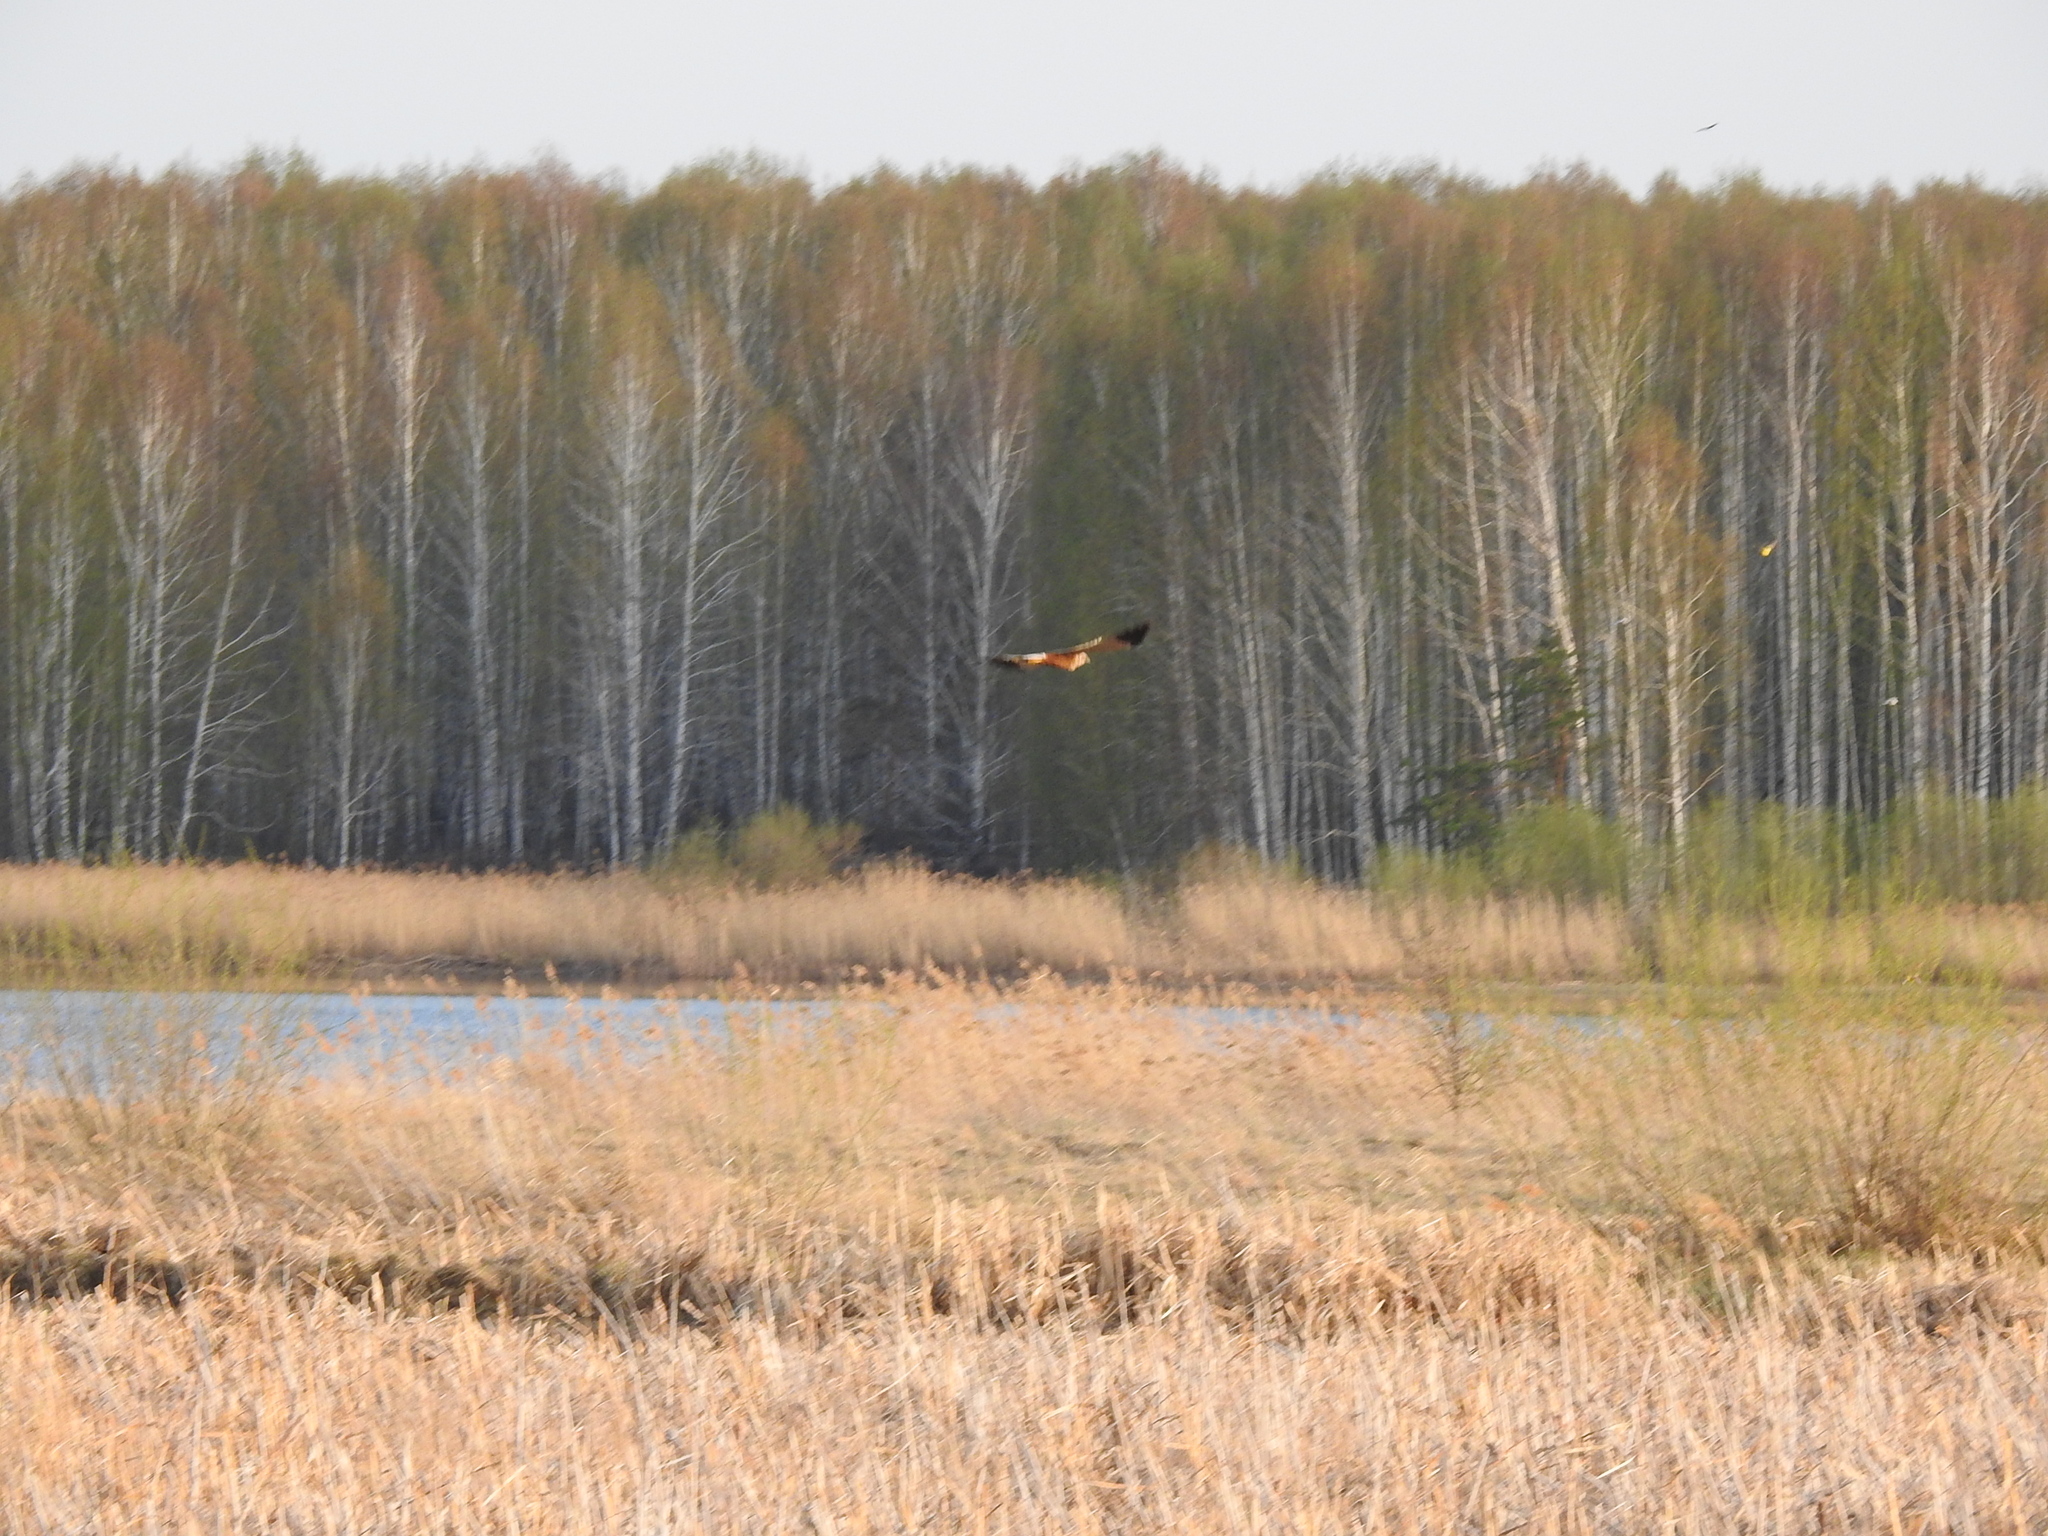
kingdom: Animalia
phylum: Chordata
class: Aves
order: Accipitriformes
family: Accipitridae
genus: Circus
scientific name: Circus aeruginosus
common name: Western marsh harrier
